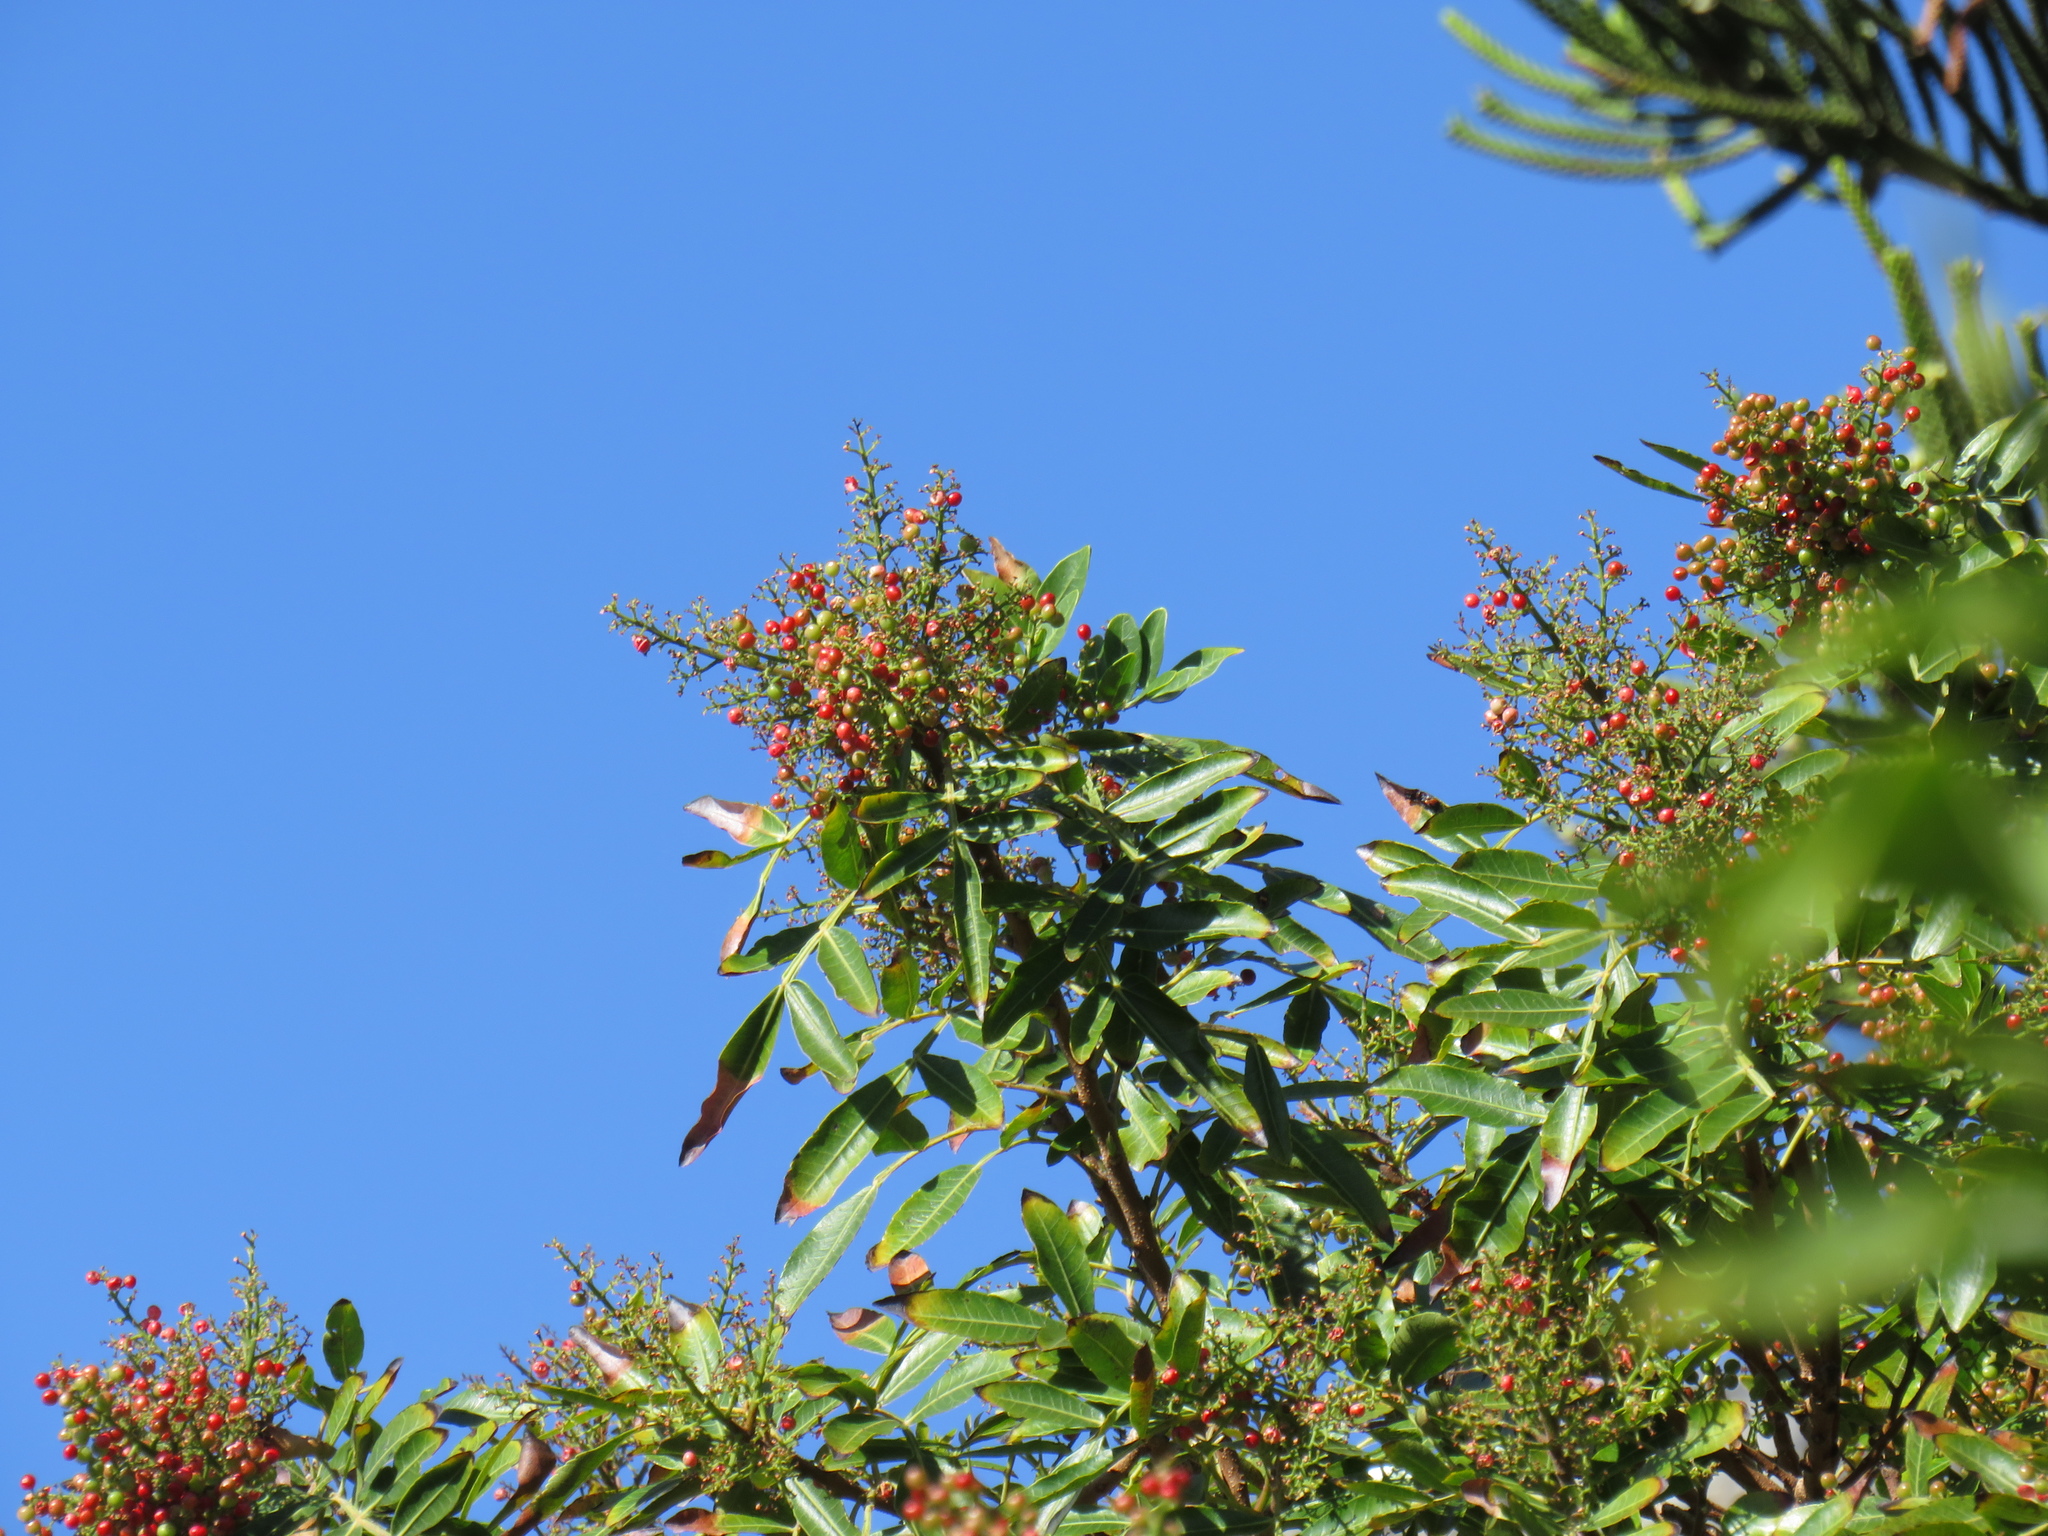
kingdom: Plantae
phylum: Tracheophyta
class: Magnoliopsida
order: Sapindales
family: Anacardiaceae
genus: Schinus
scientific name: Schinus terebinthifolia
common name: Brazilian peppertree
